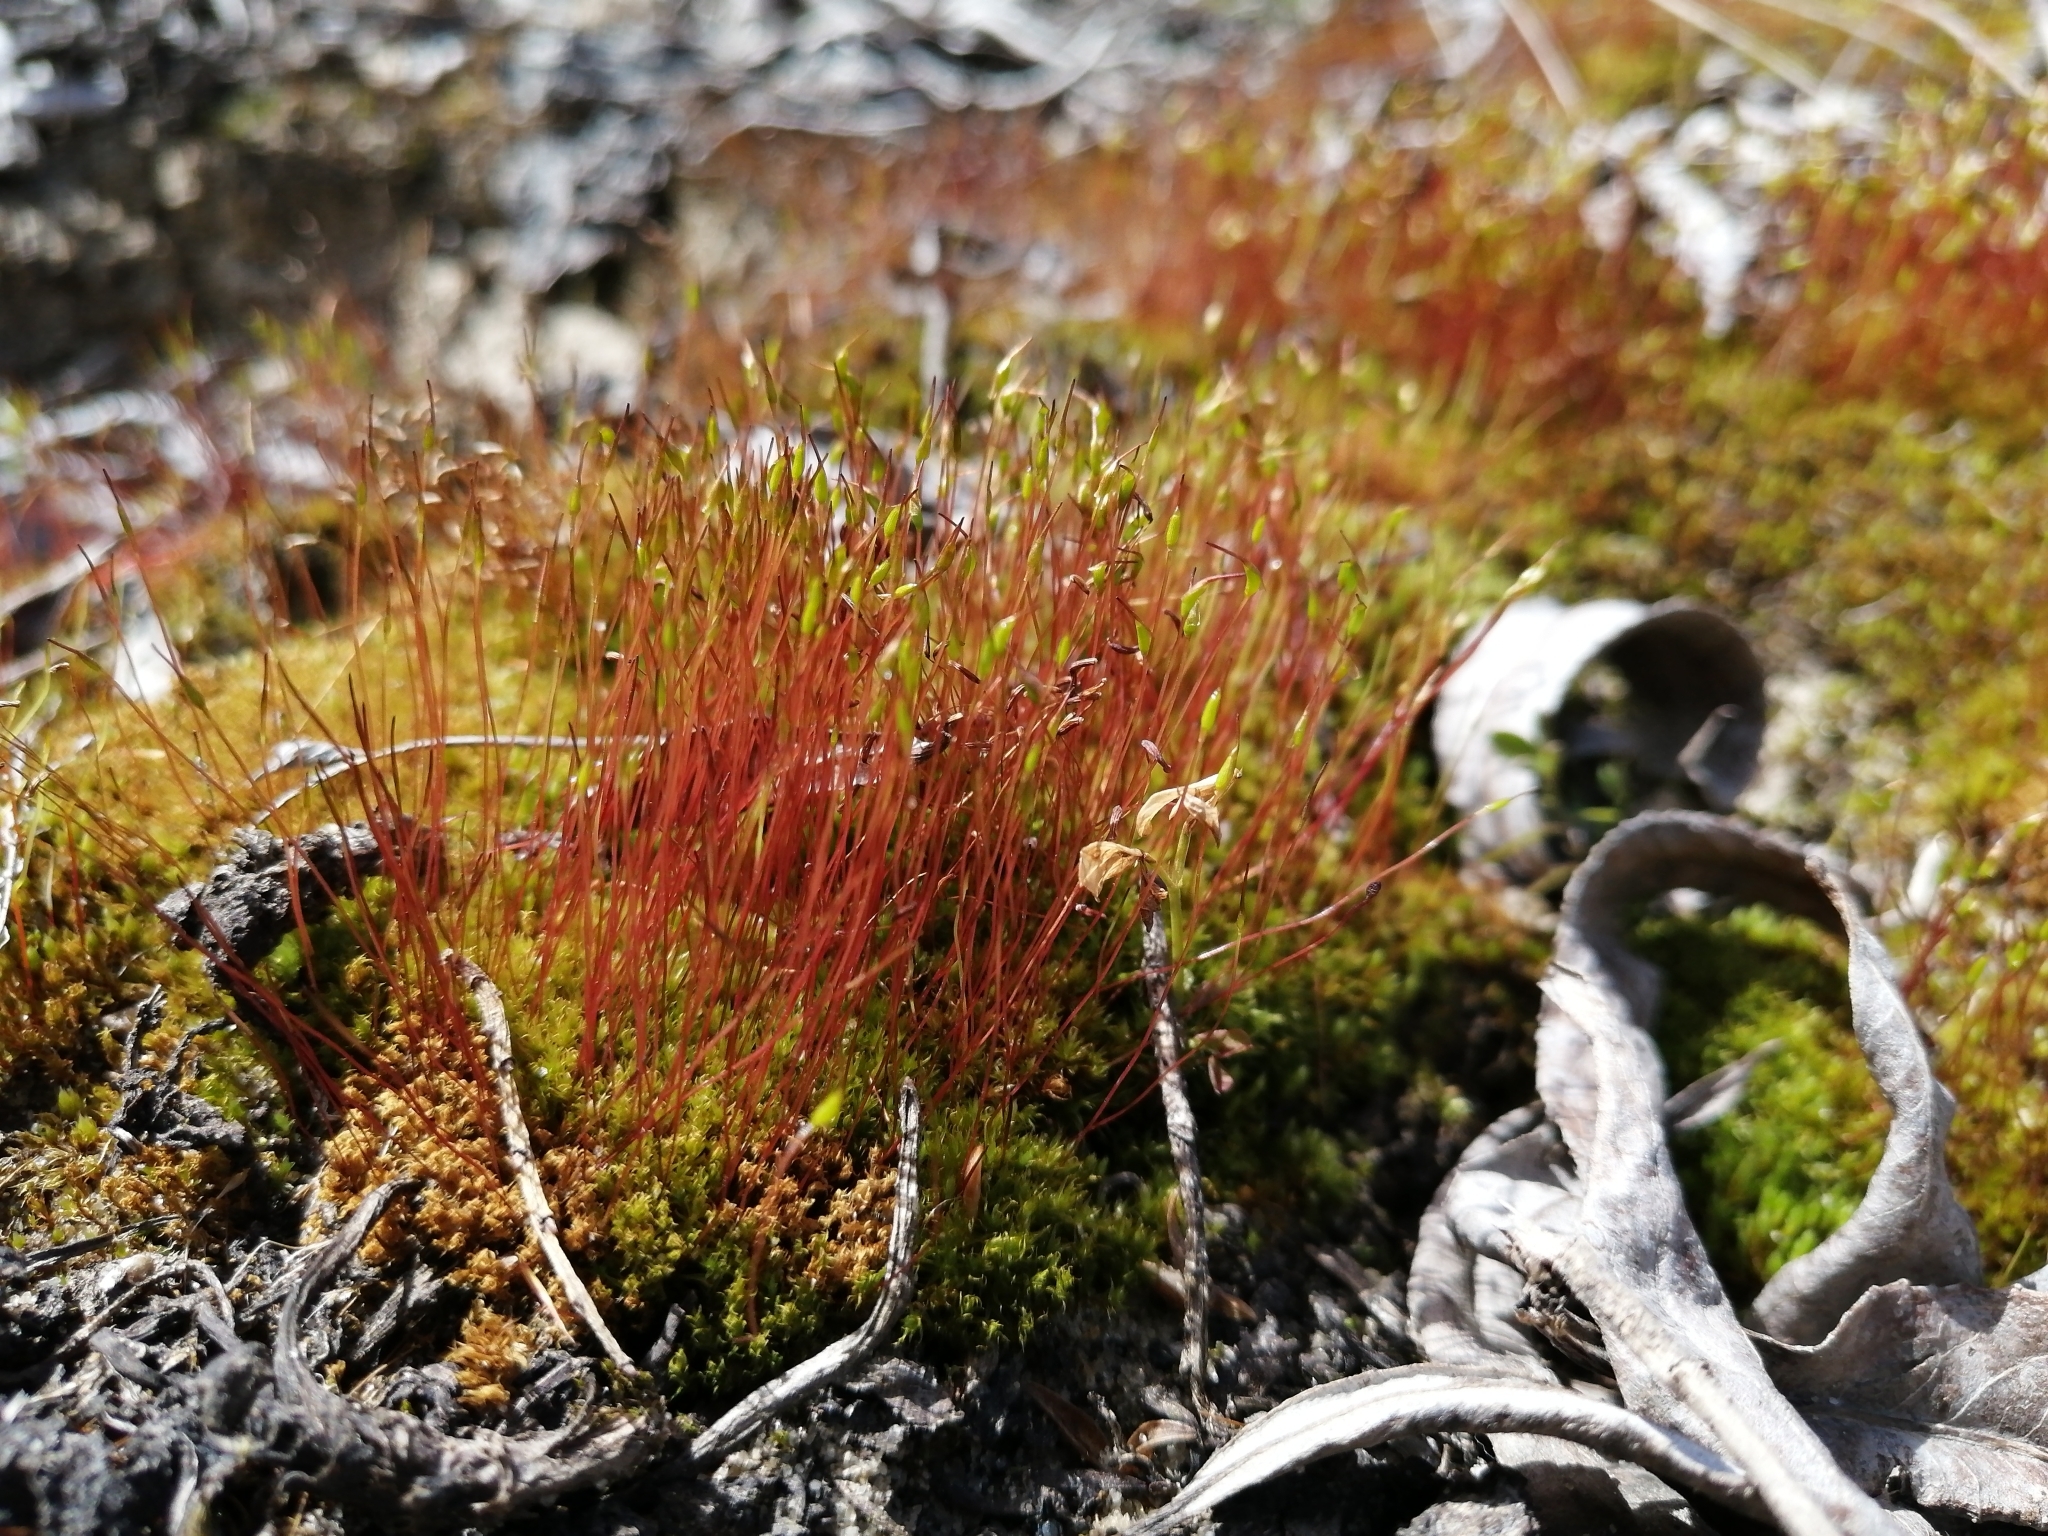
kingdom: Plantae
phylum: Bryophyta
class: Bryopsida
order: Dicranales
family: Ditrichaceae
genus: Ceratodon
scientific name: Ceratodon purpureus
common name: Redshank
